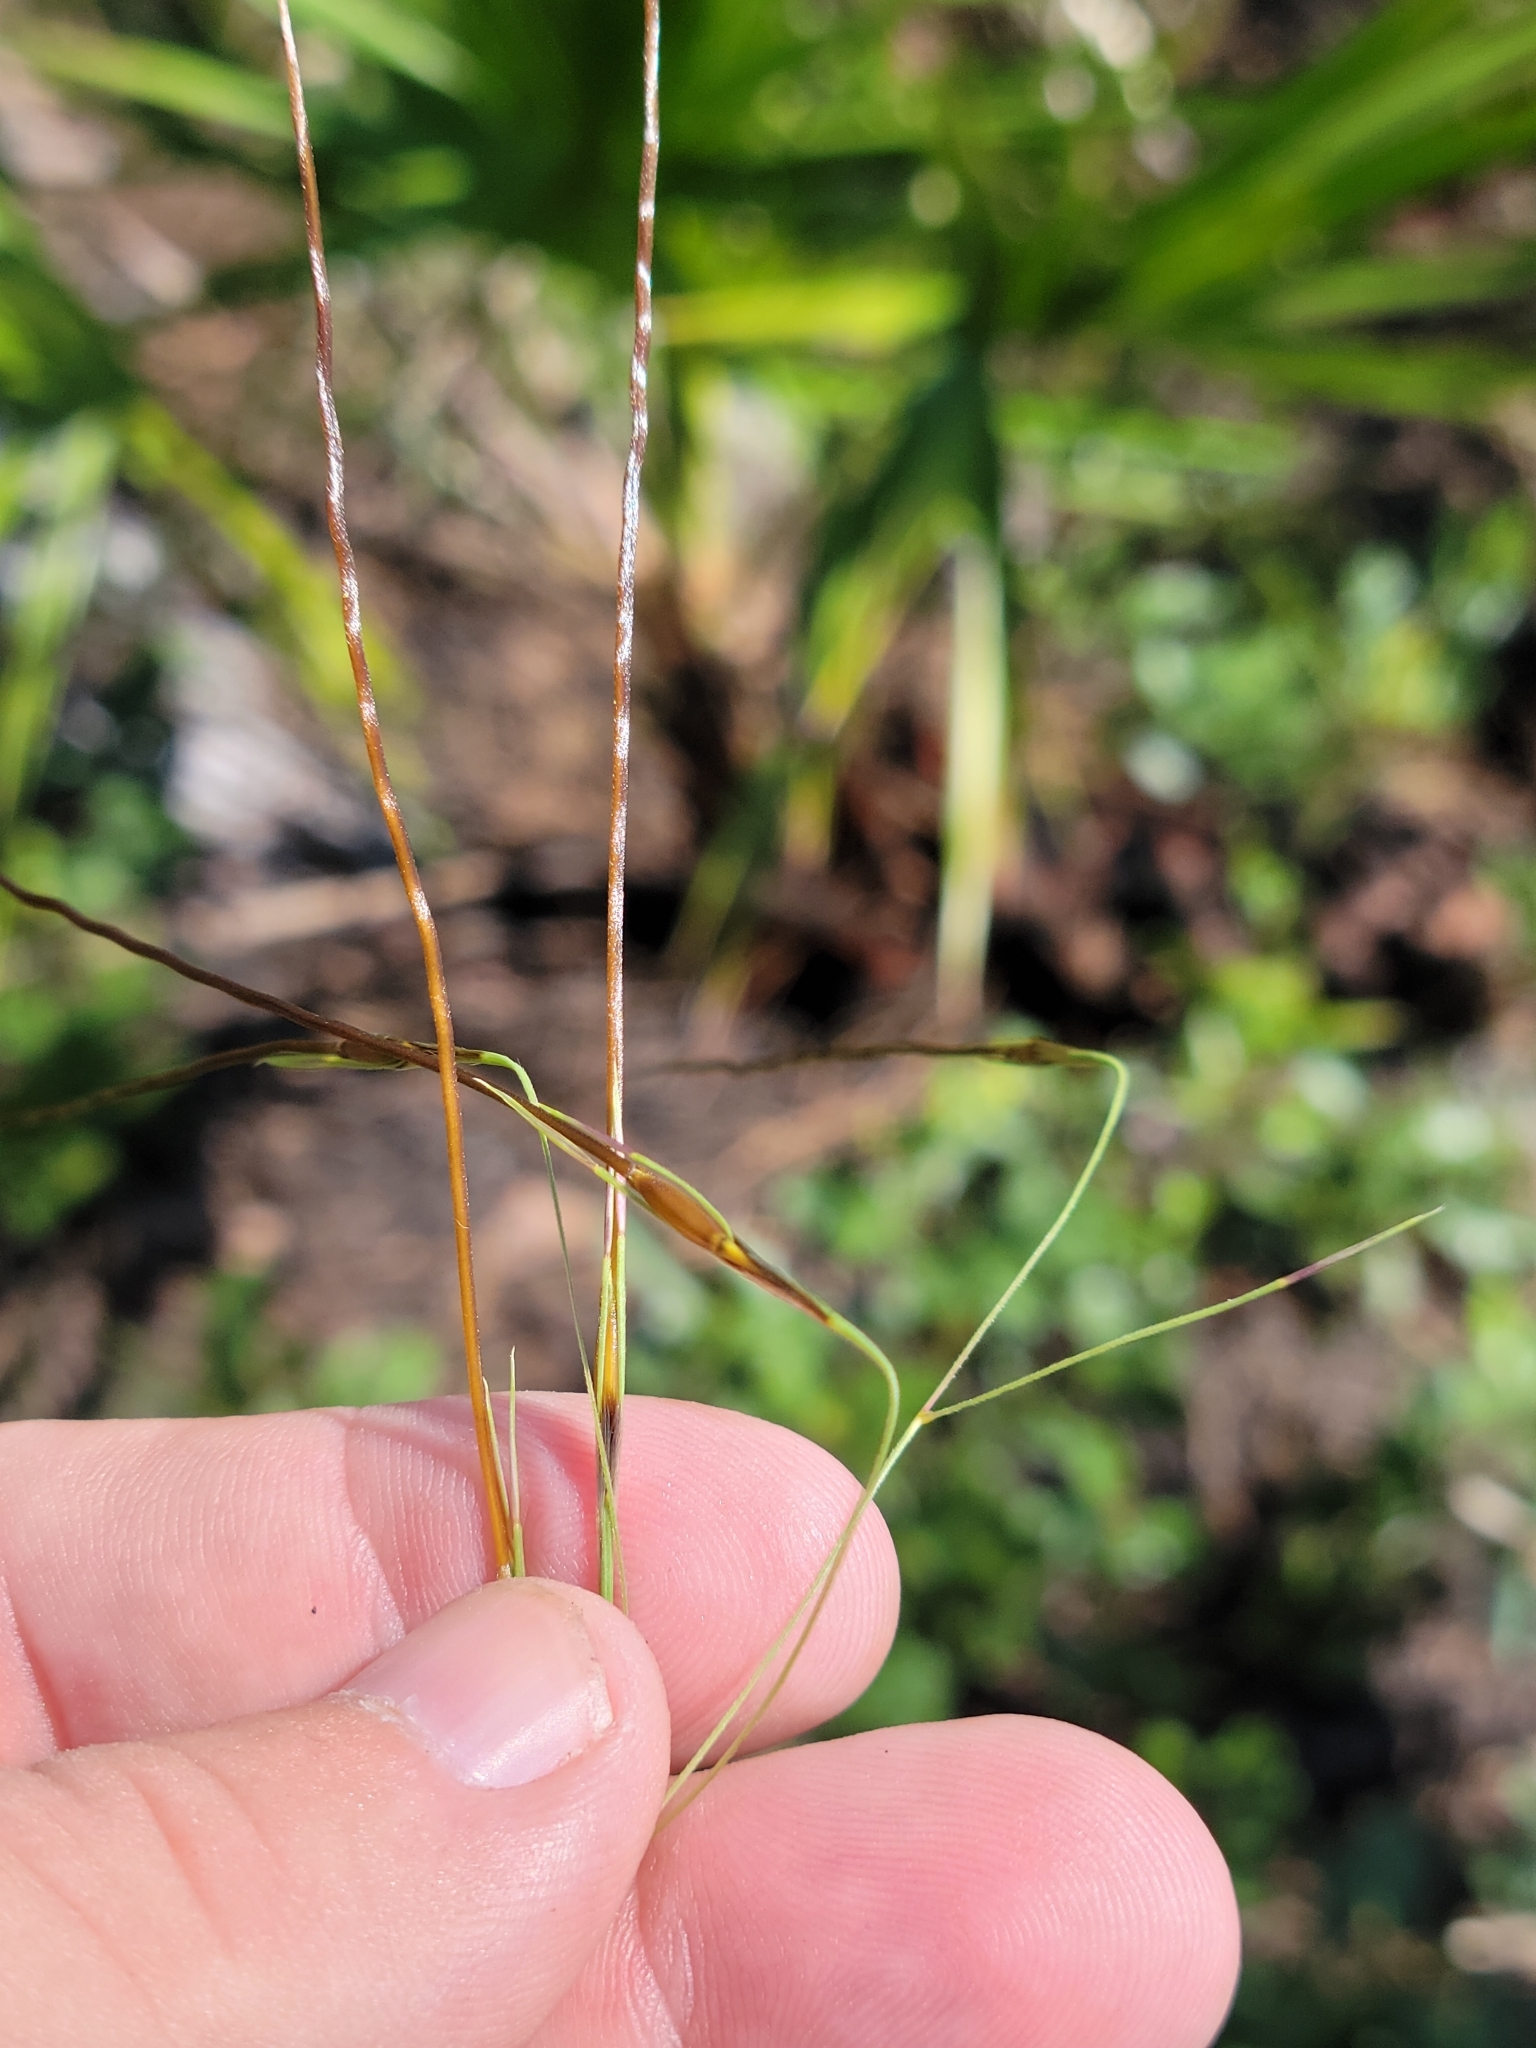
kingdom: Plantae
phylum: Tracheophyta
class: Liliopsida
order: Poales
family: Poaceae
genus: Chrysopogon
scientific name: Chrysopogon pauciflorus
